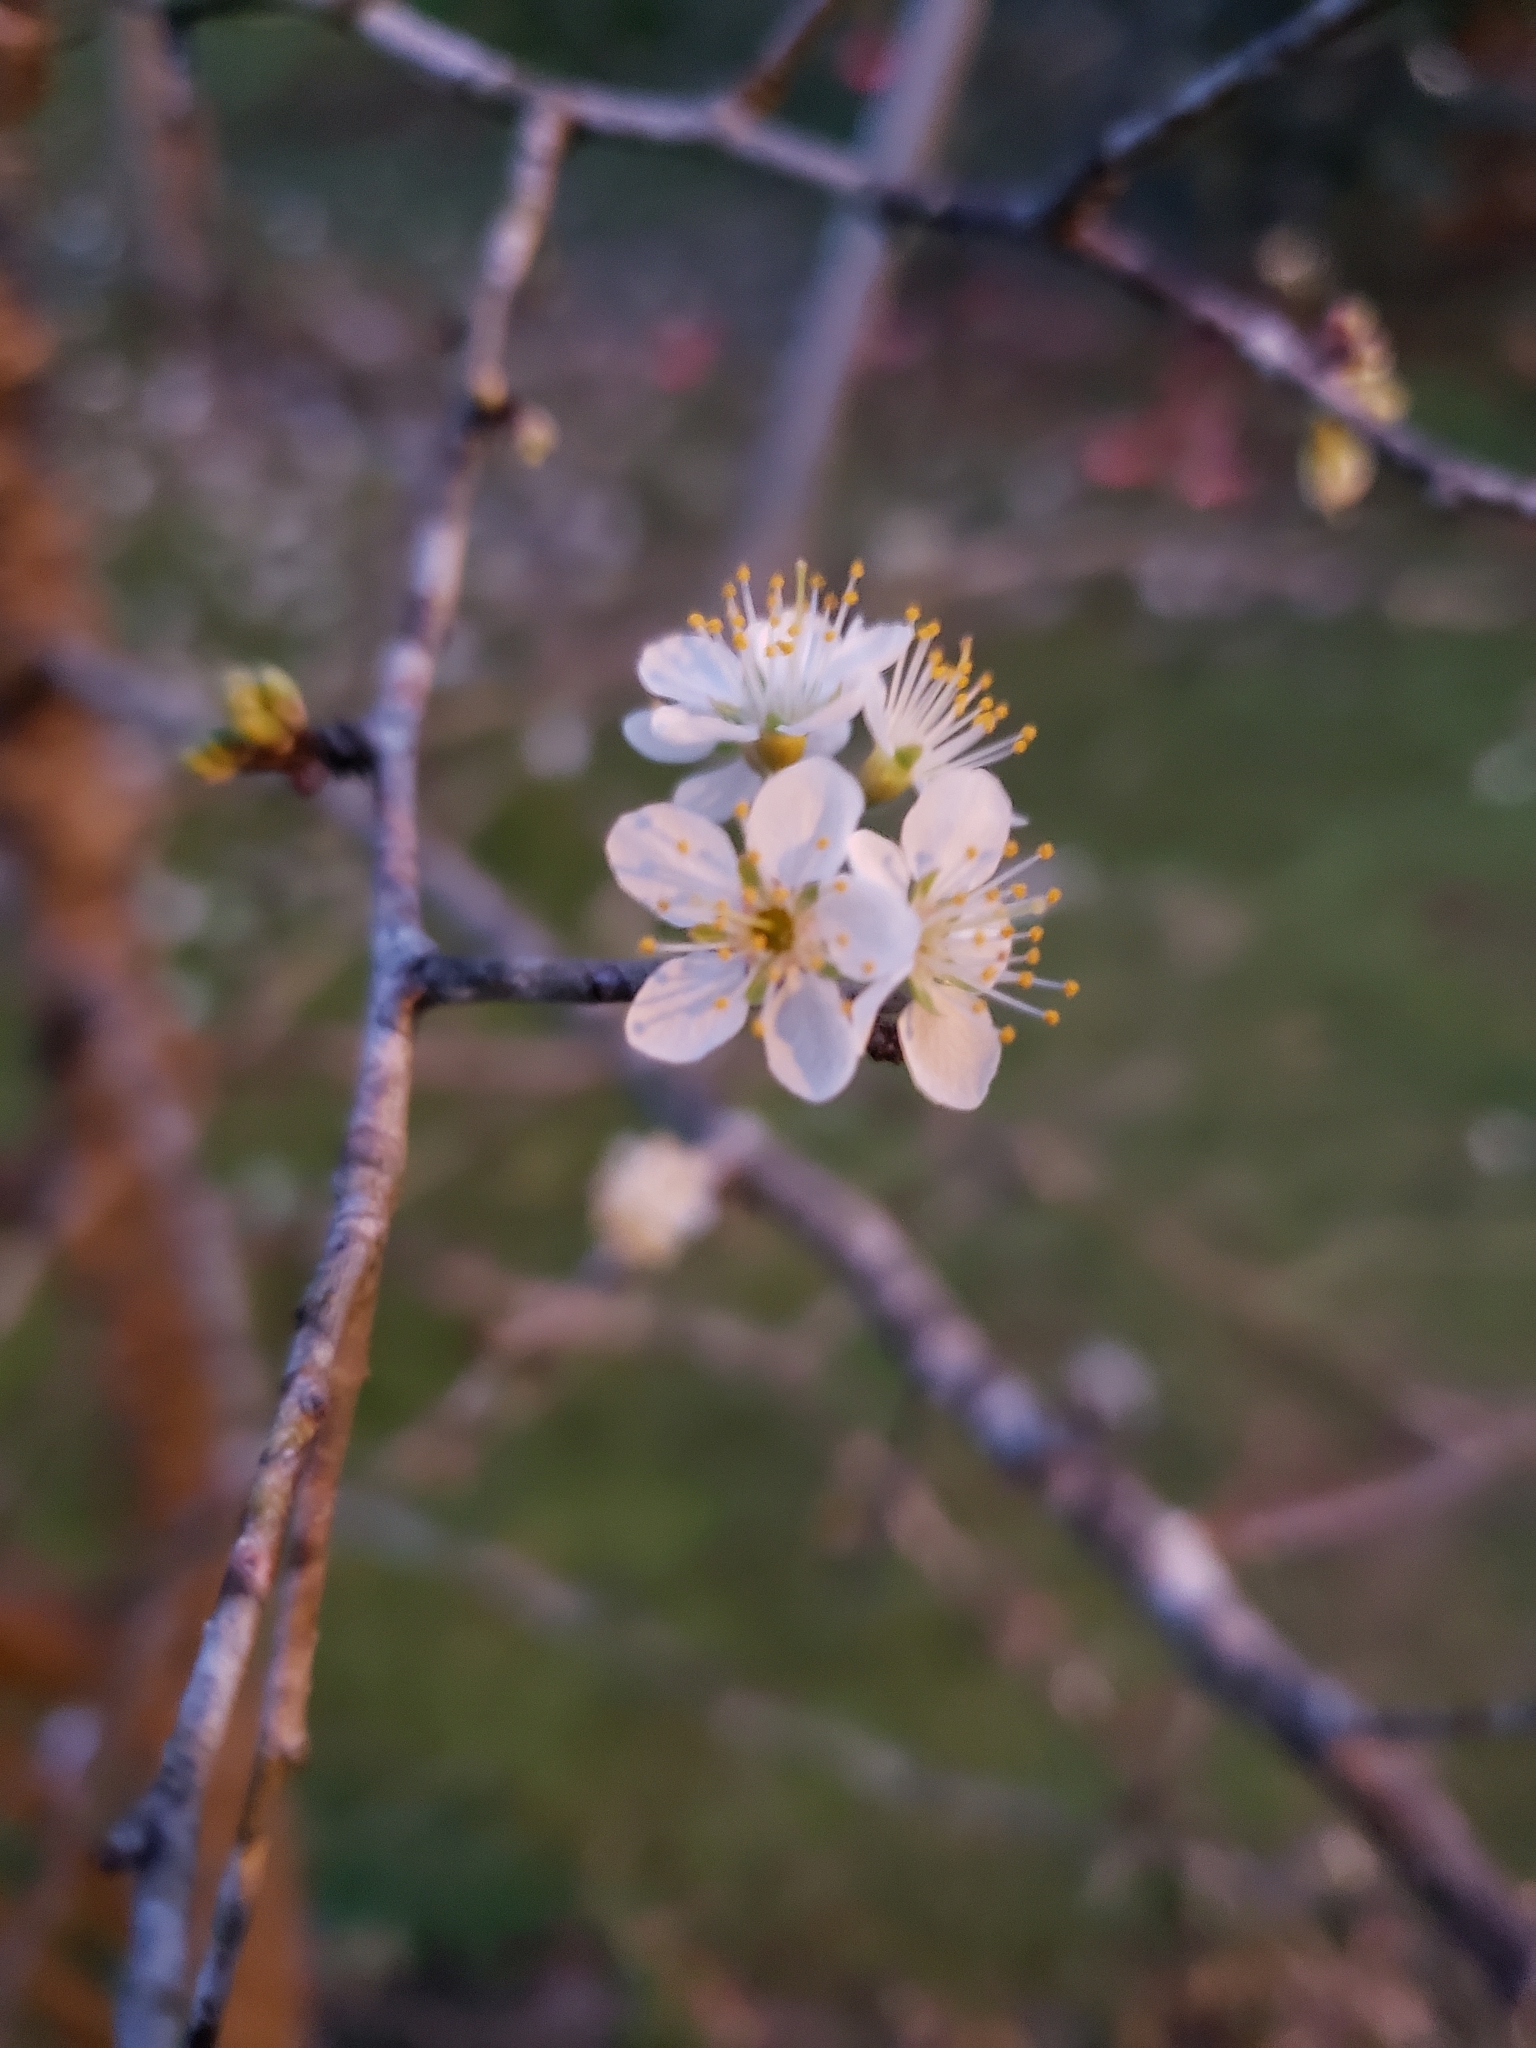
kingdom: Plantae
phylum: Tracheophyta
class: Magnoliopsida
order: Rosales
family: Rosaceae
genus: Prunus
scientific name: Prunus angustifolia
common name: Cherokee plum
